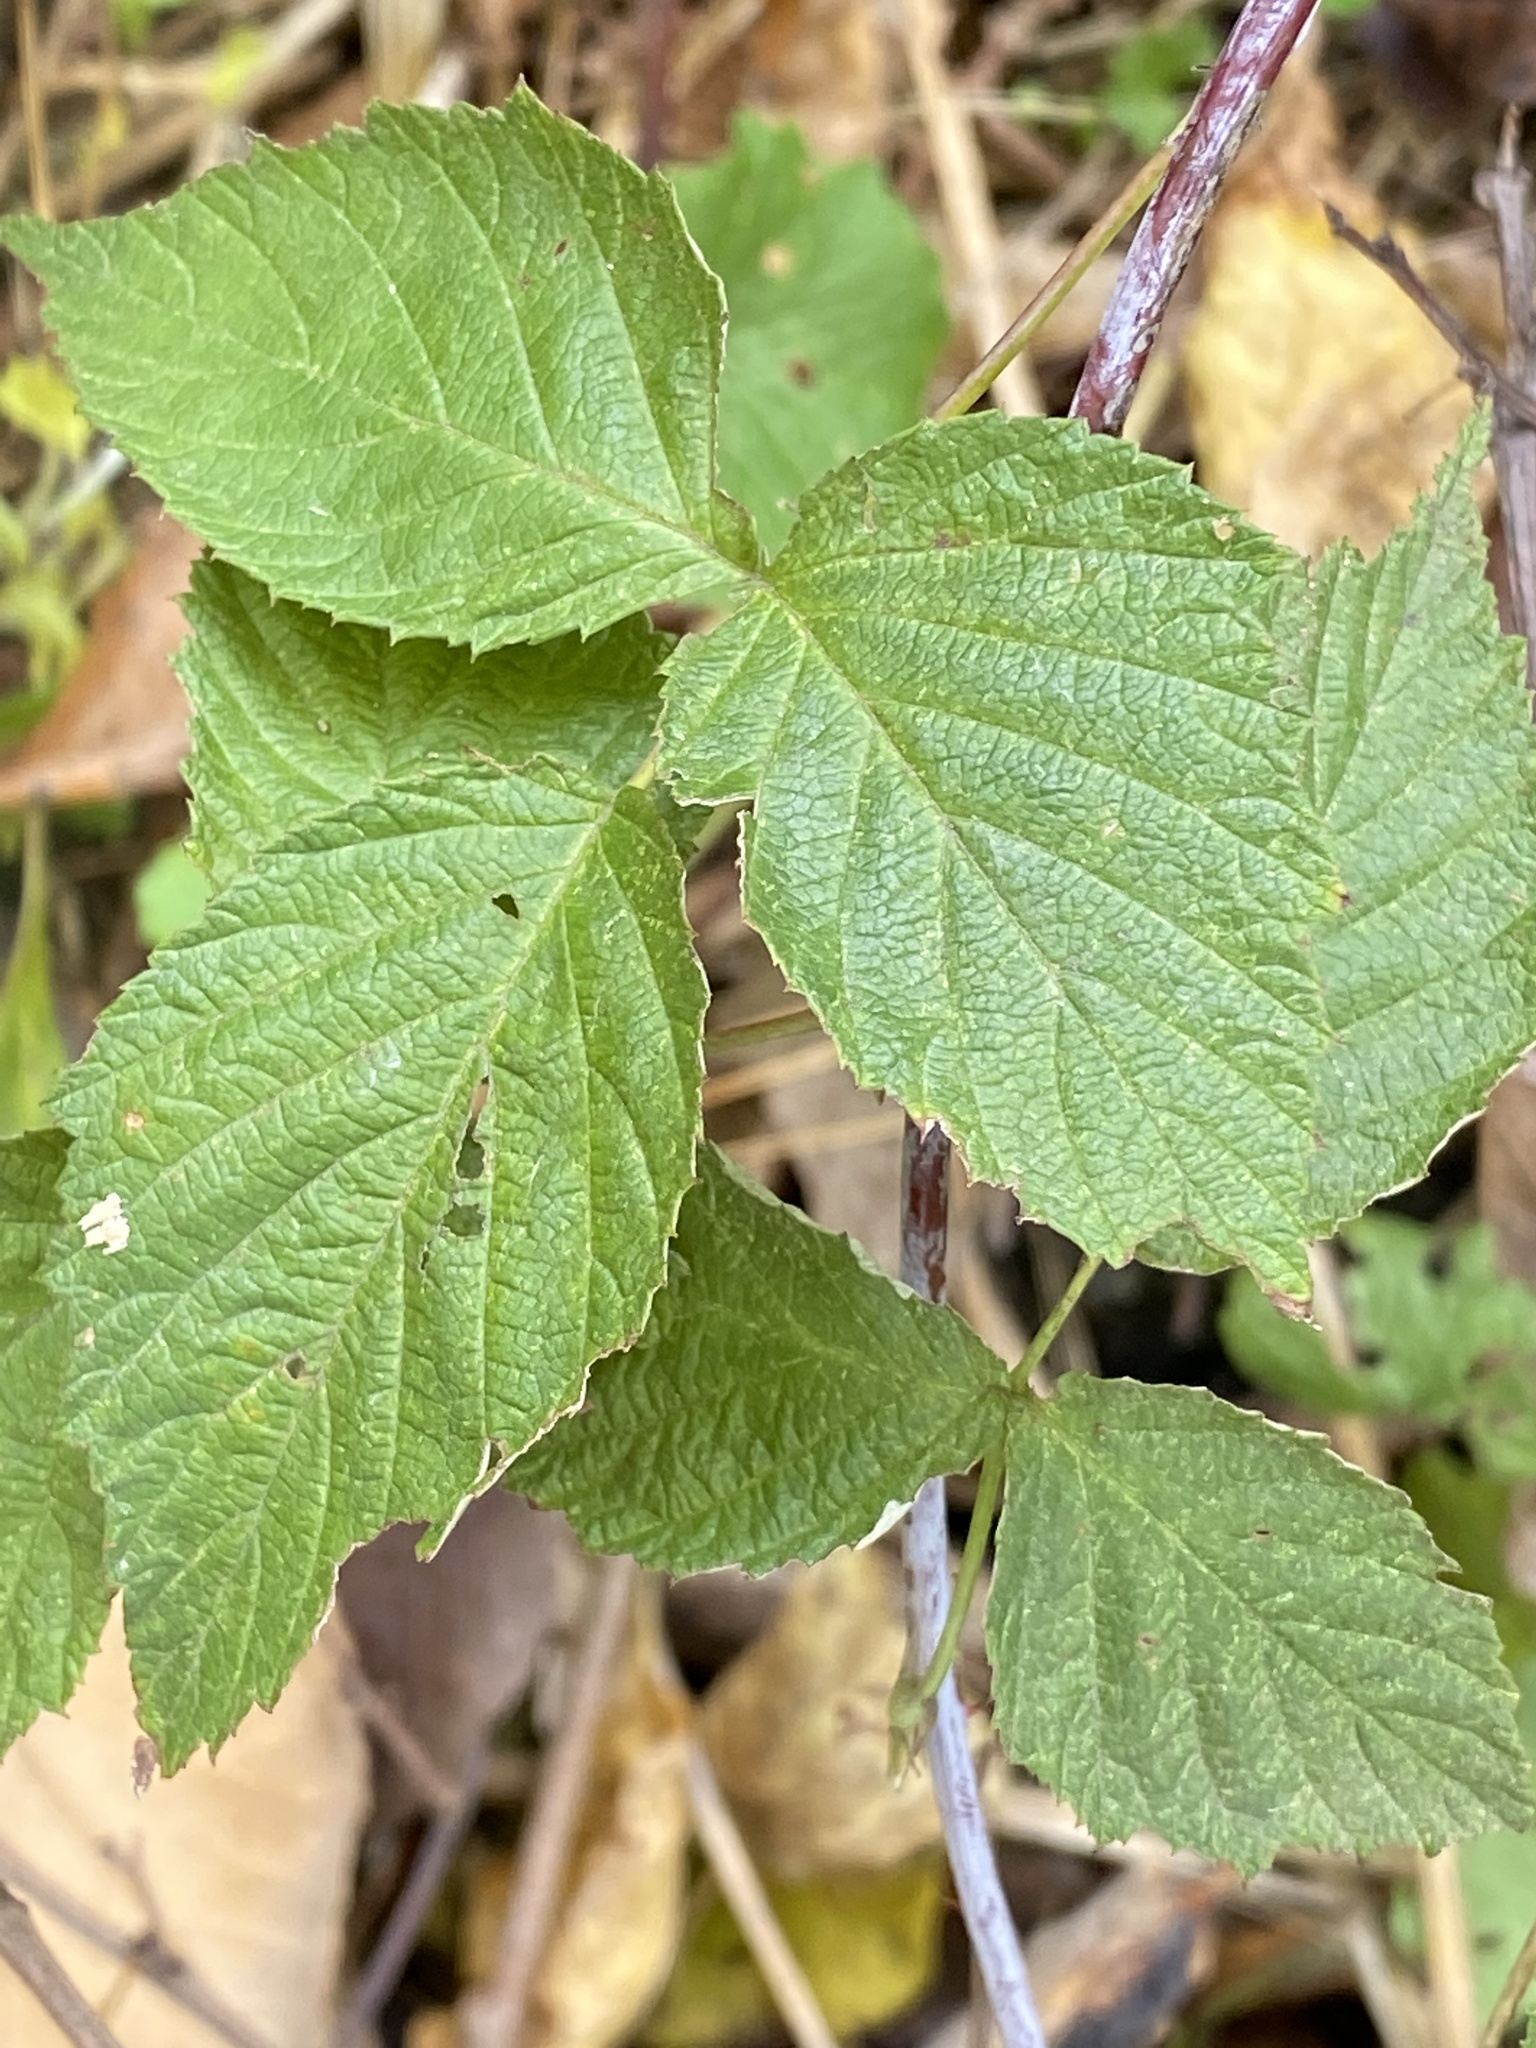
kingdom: Plantae
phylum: Tracheophyta
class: Magnoliopsida
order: Rosales
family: Rosaceae
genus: Rubus
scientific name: Rubus occidentalis
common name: Black raspberry
